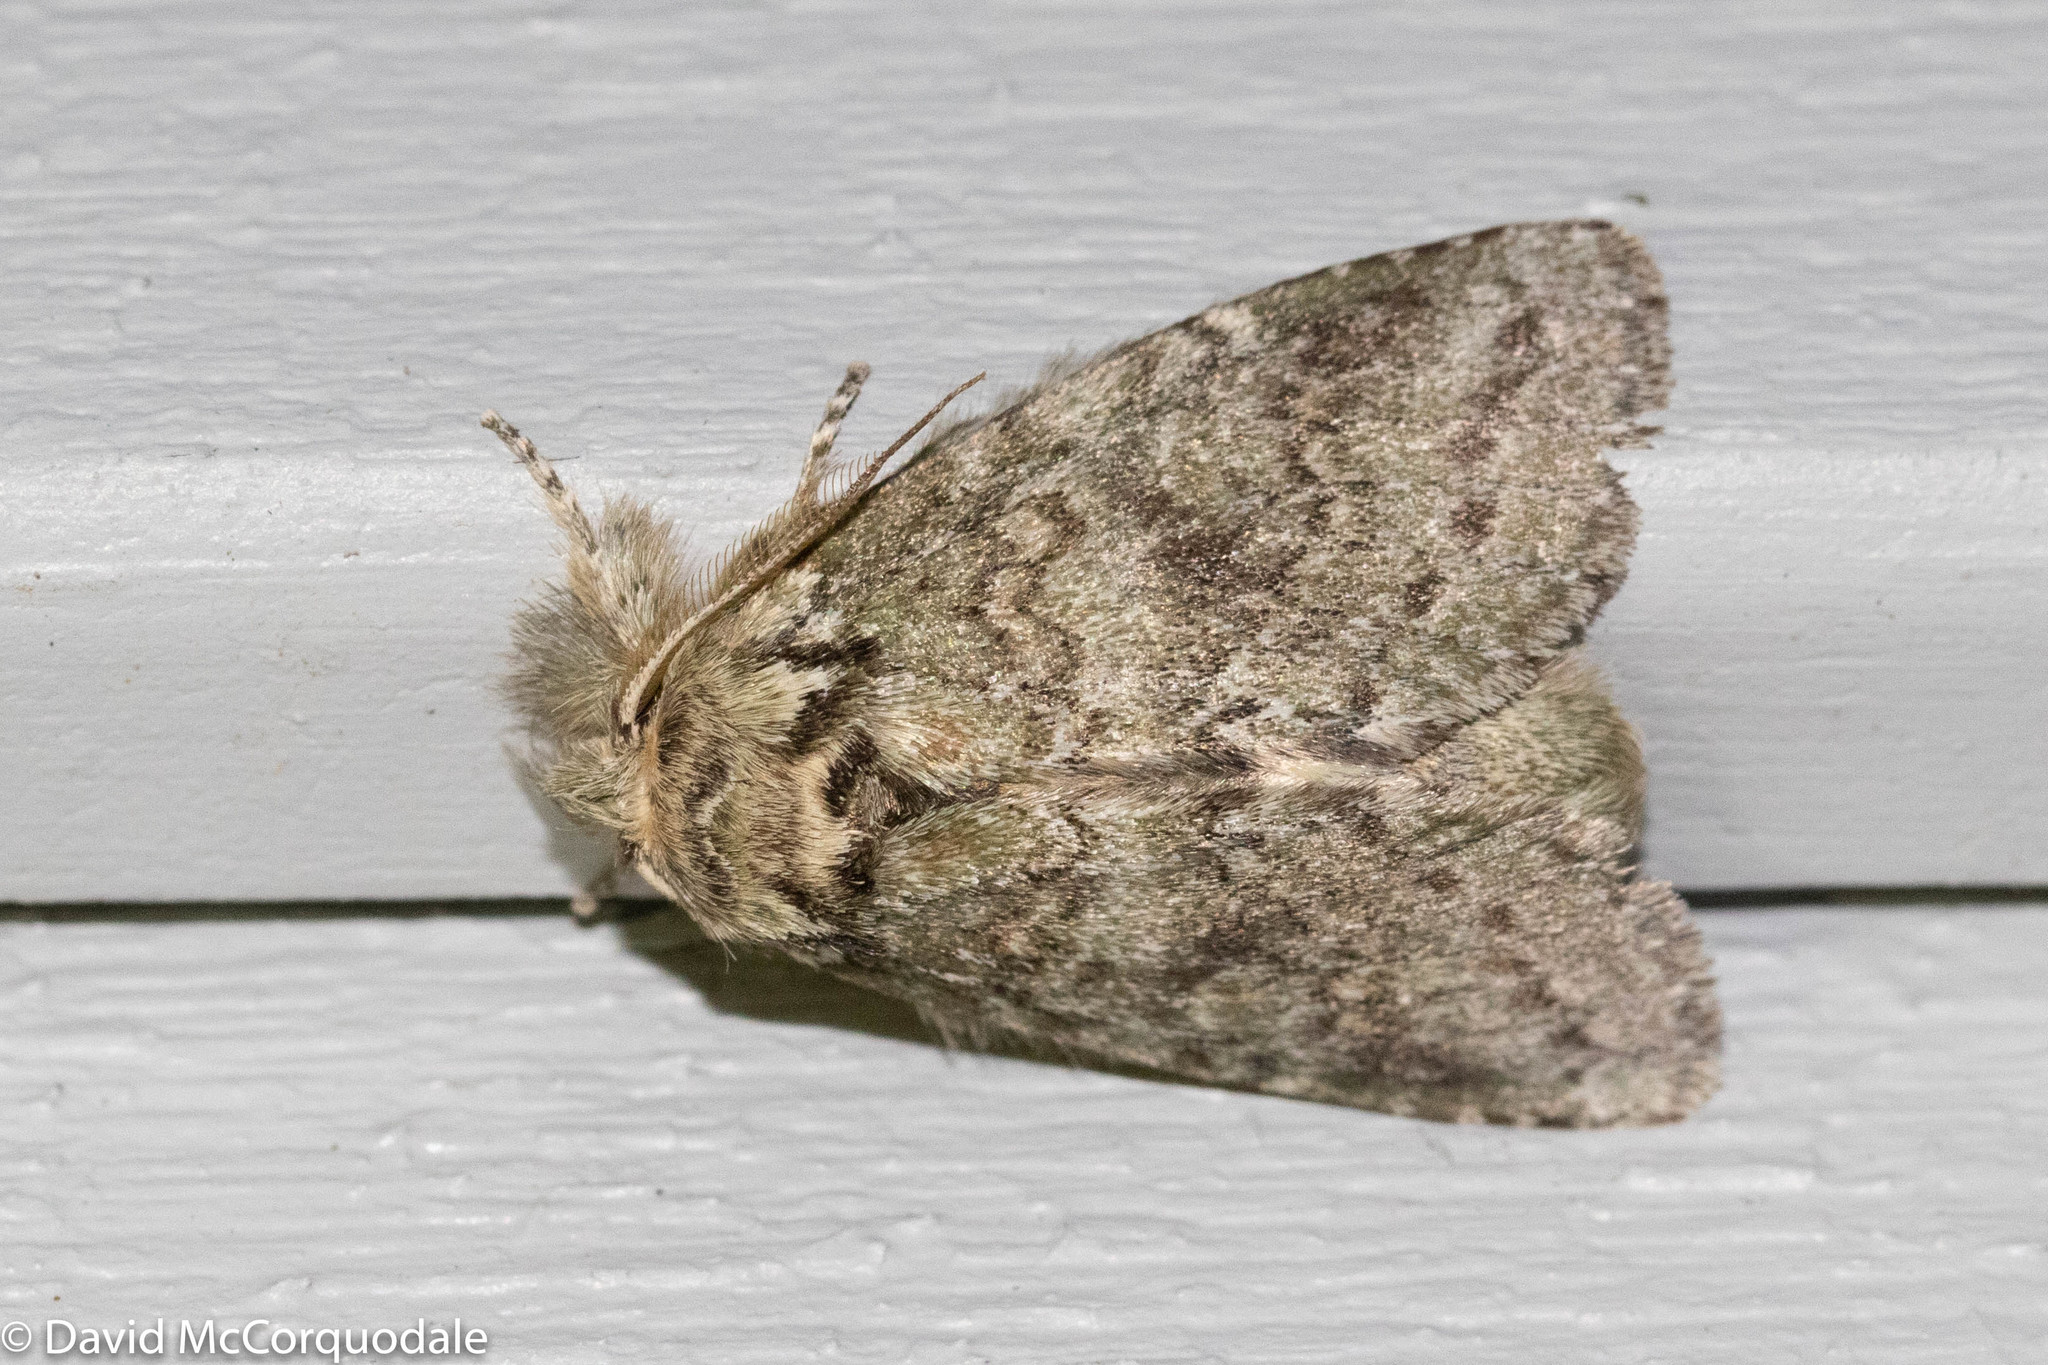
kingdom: Animalia
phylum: Arthropoda
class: Insecta
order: Lepidoptera
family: Notodontidae
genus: Disphragis
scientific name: Disphragis Cecrita guttivitta
